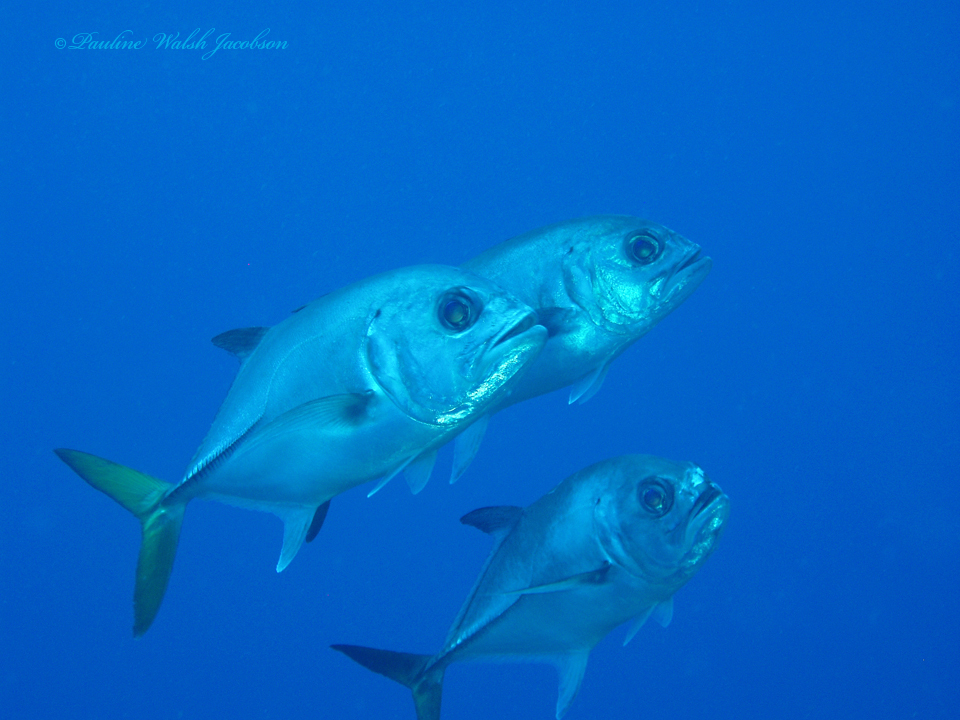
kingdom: Animalia
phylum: Chordata
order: Perciformes
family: Carangidae
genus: Caranx
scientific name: Caranx latus
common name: Horse eye jack
